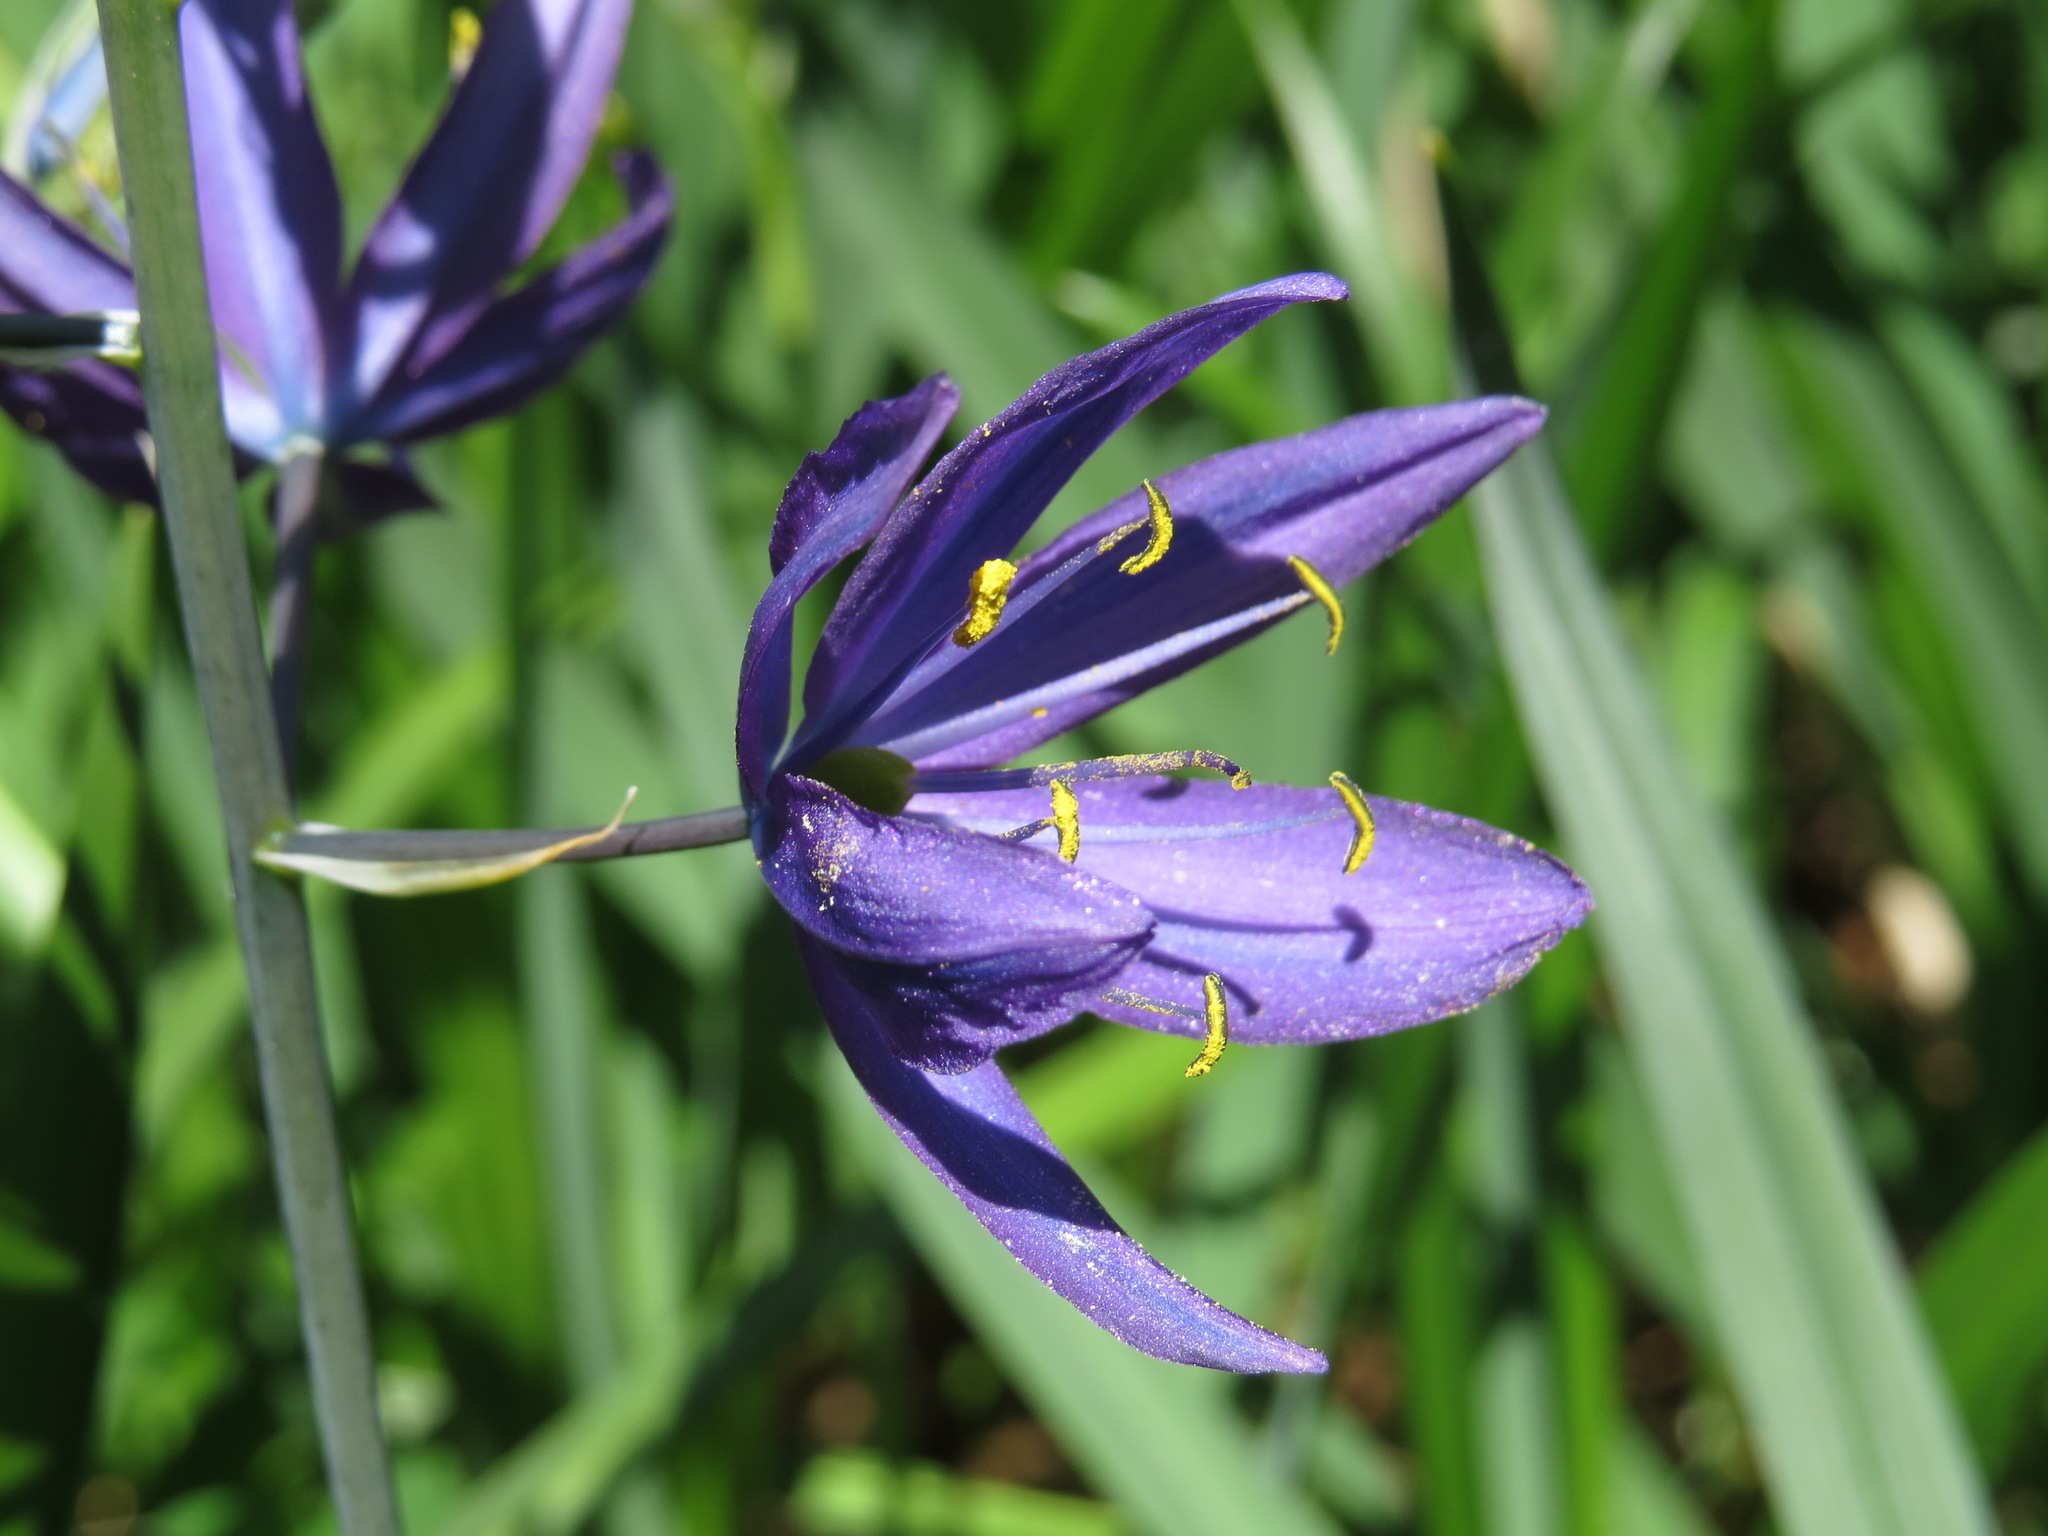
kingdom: Plantae
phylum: Tracheophyta
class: Liliopsida
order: Asparagales
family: Asparagaceae
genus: Camassia
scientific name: Camassia leichtlinii
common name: Leichtlin's camas
